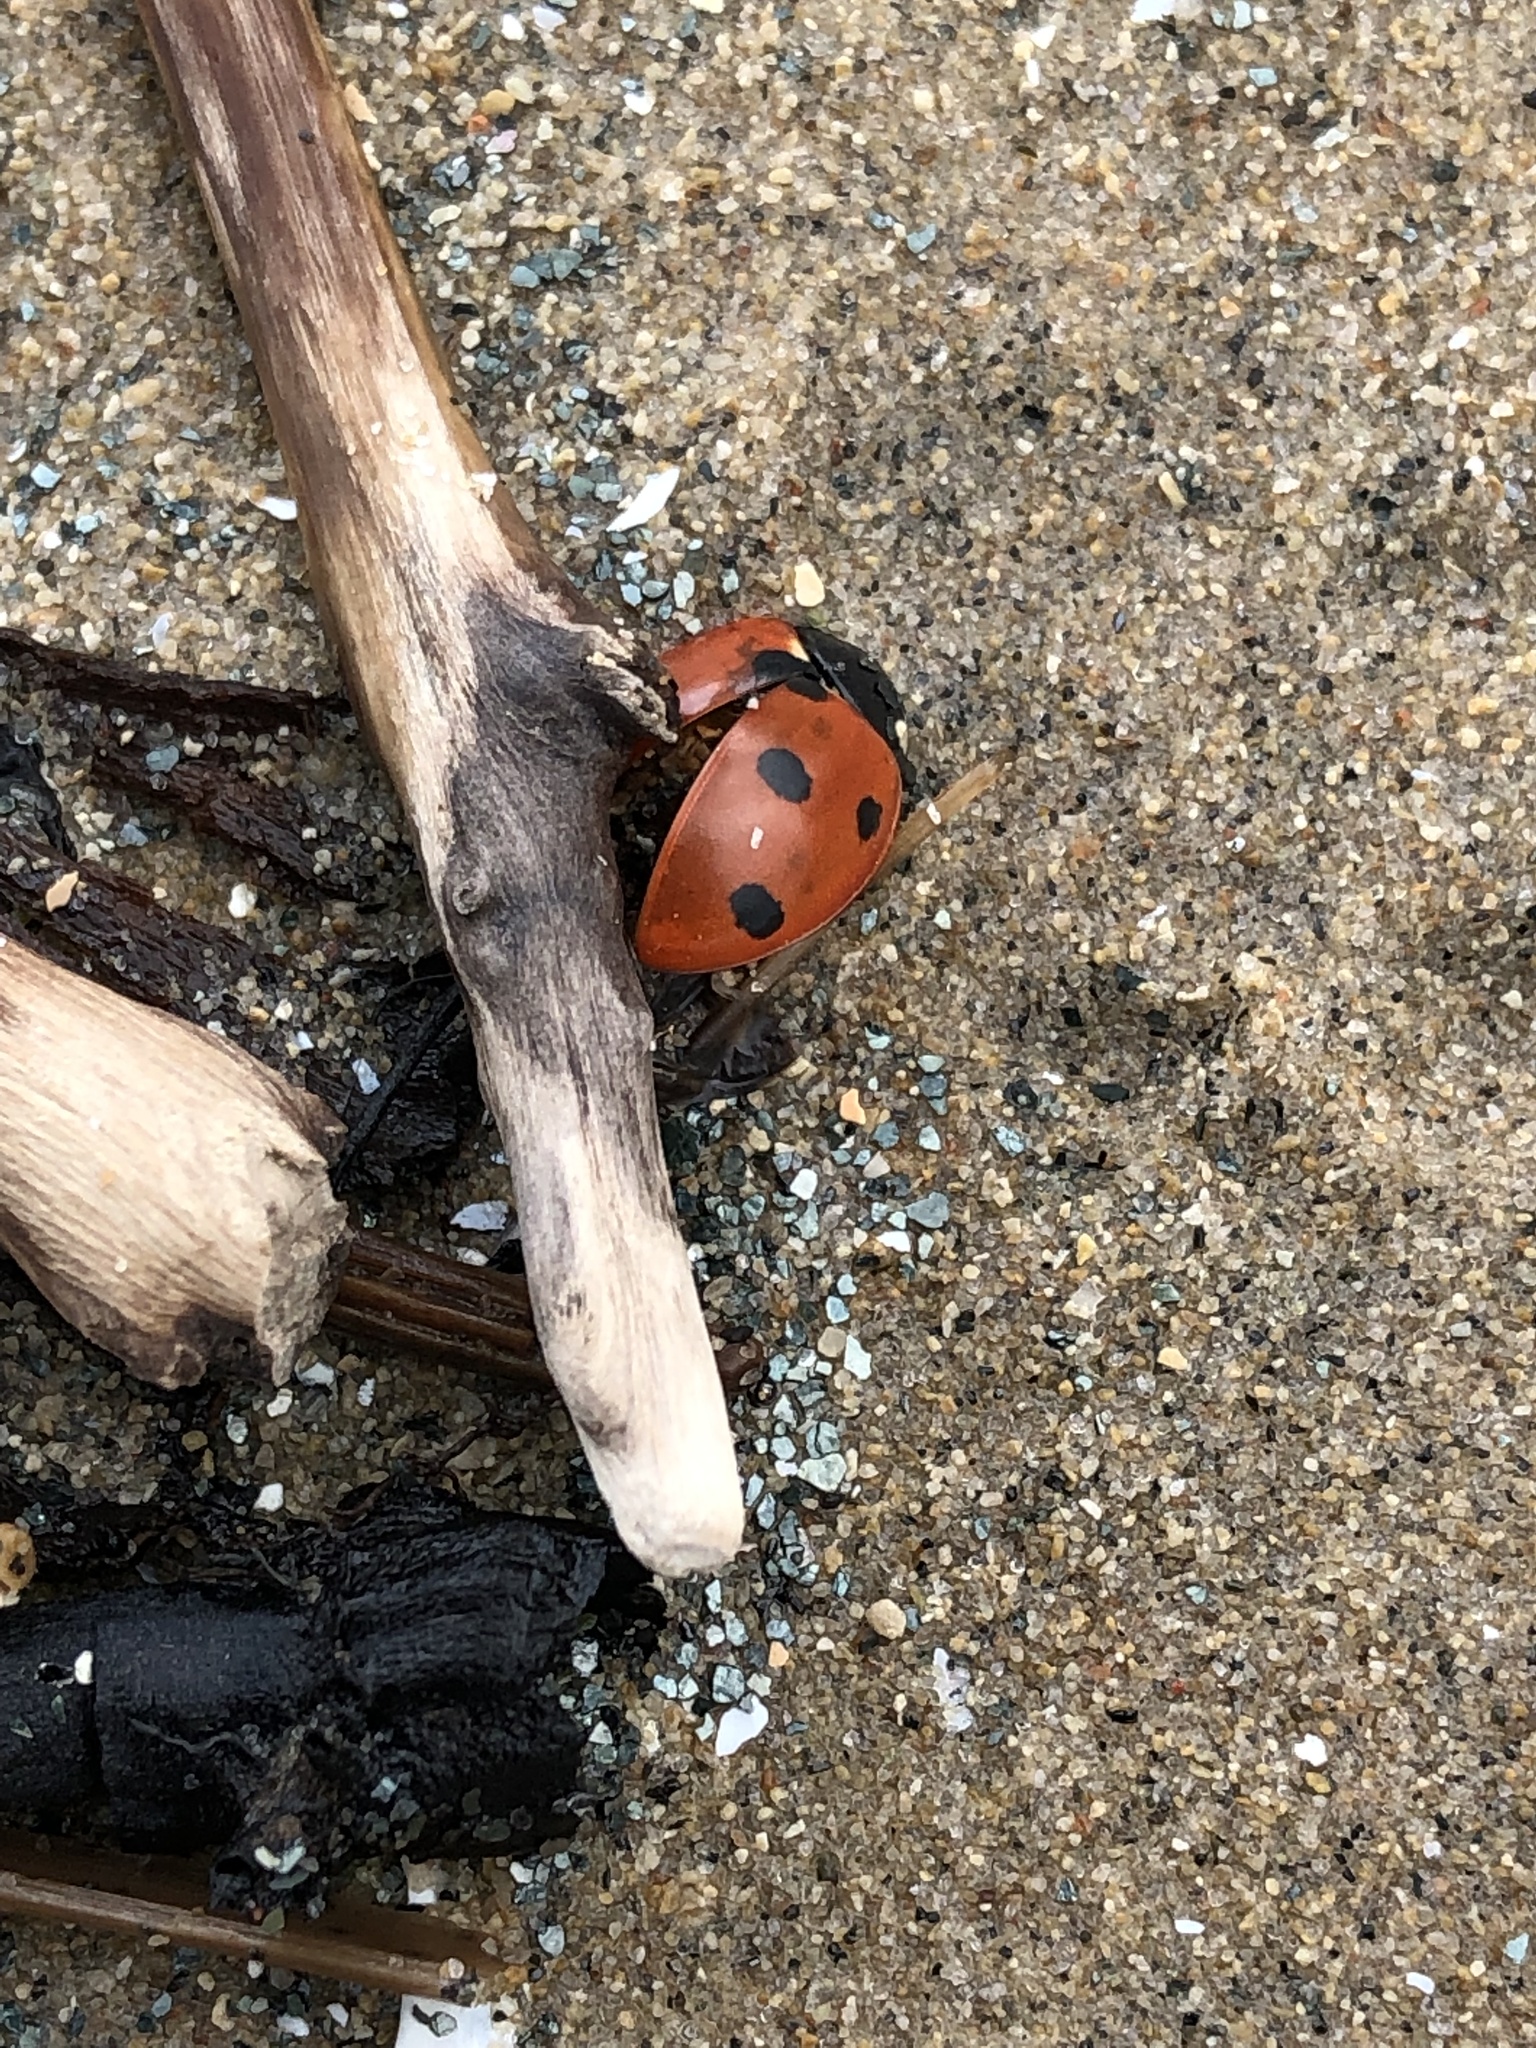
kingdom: Animalia
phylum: Arthropoda
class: Insecta
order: Coleoptera
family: Coccinellidae
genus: Coccinella
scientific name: Coccinella septempunctata
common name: Sevenspotted lady beetle
